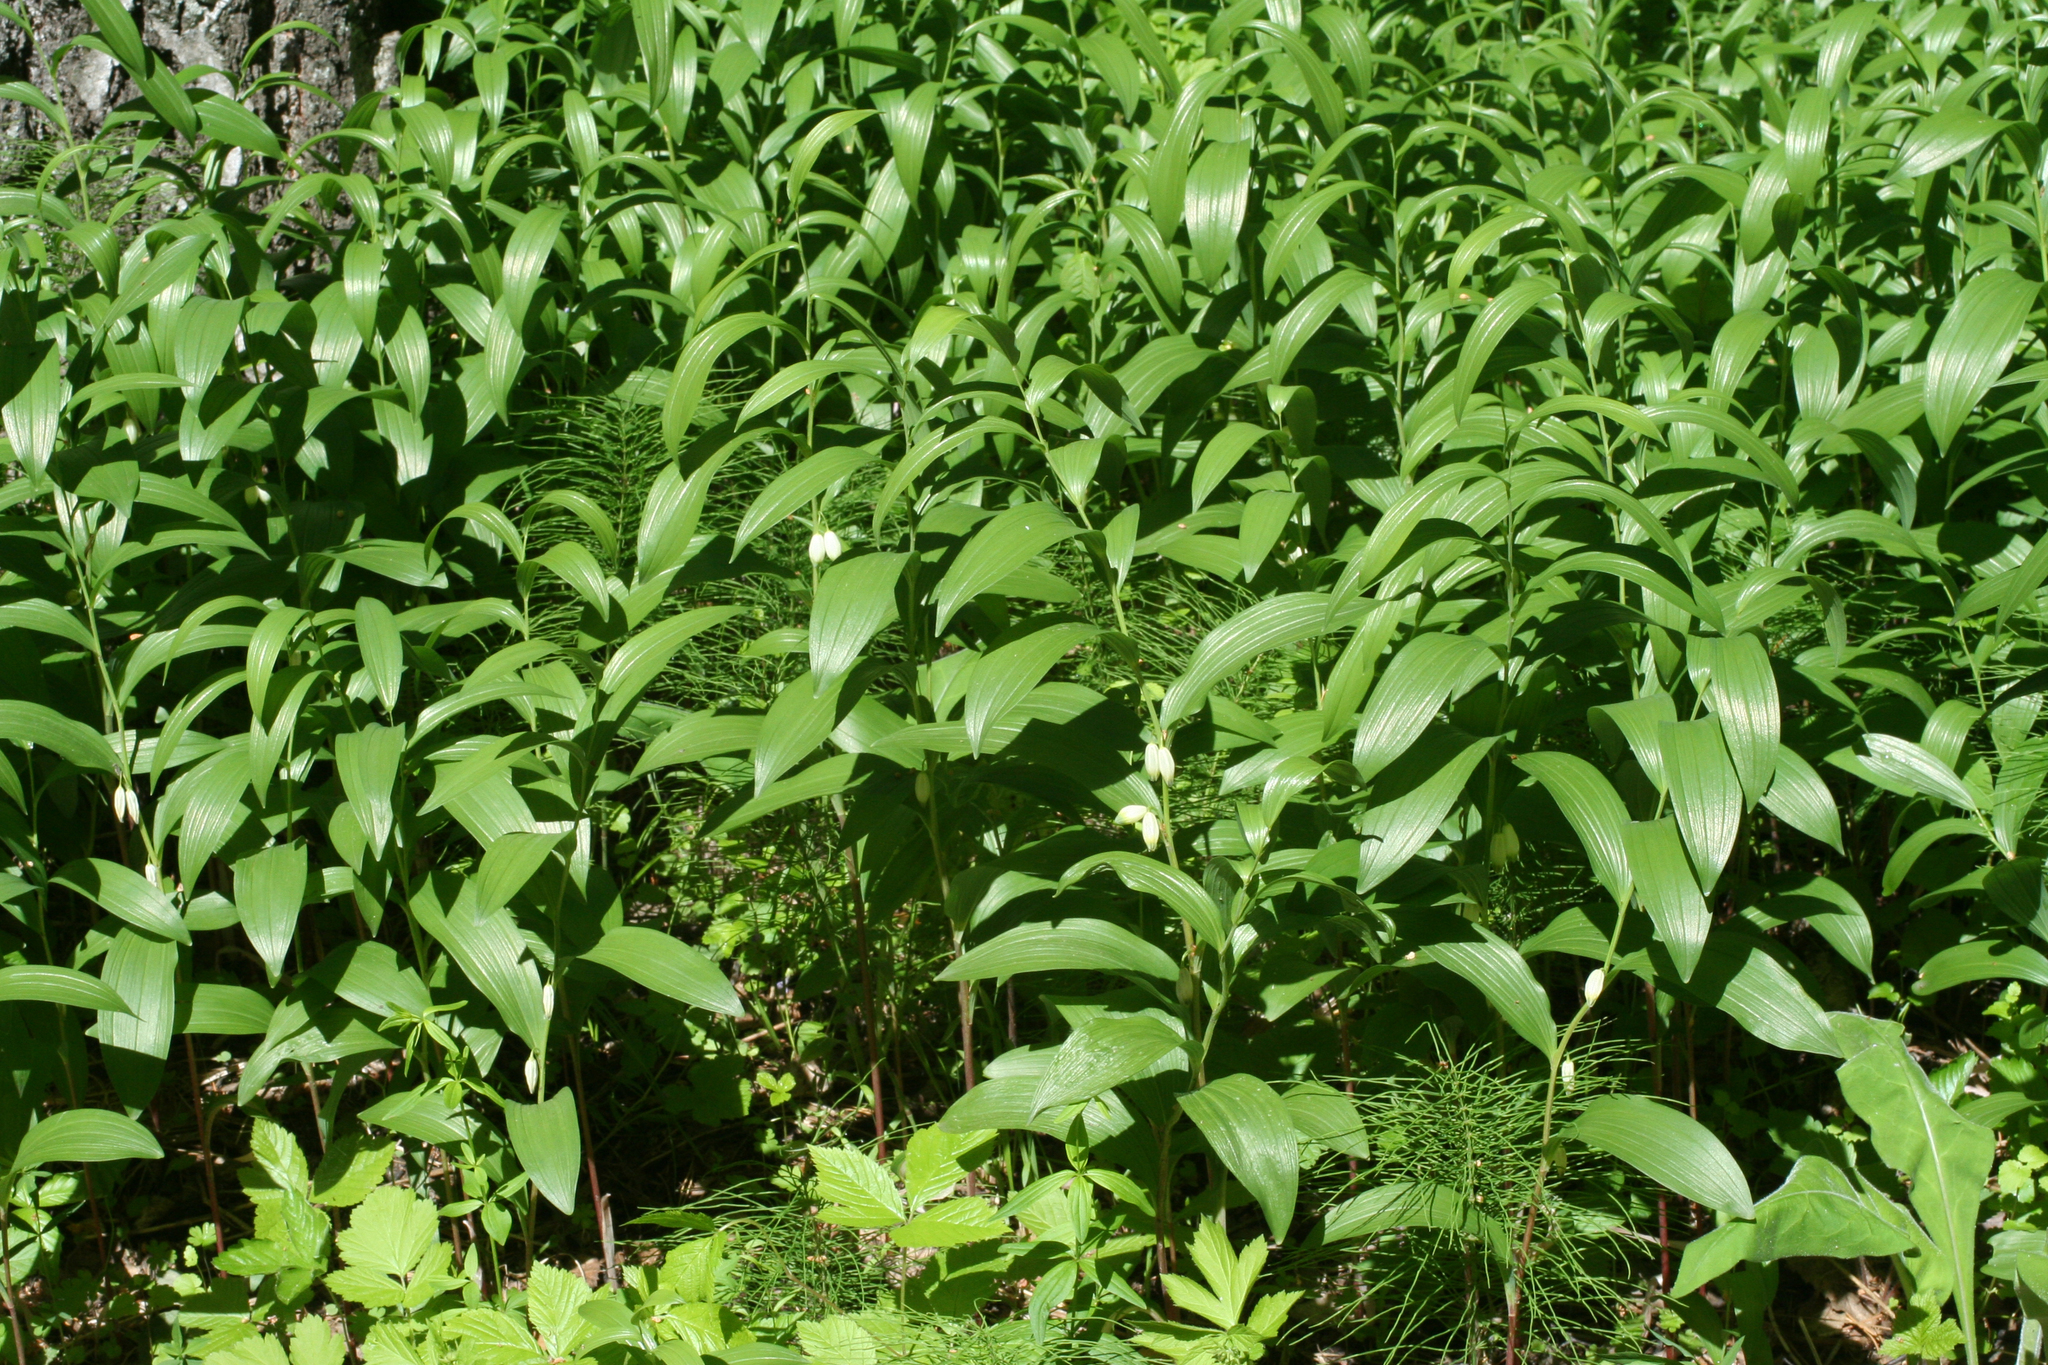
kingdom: Plantae
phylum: Tracheophyta
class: Liliopsida
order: Asparagales
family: Asparagaceae
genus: Polygonatum
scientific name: Polygonatum humile
